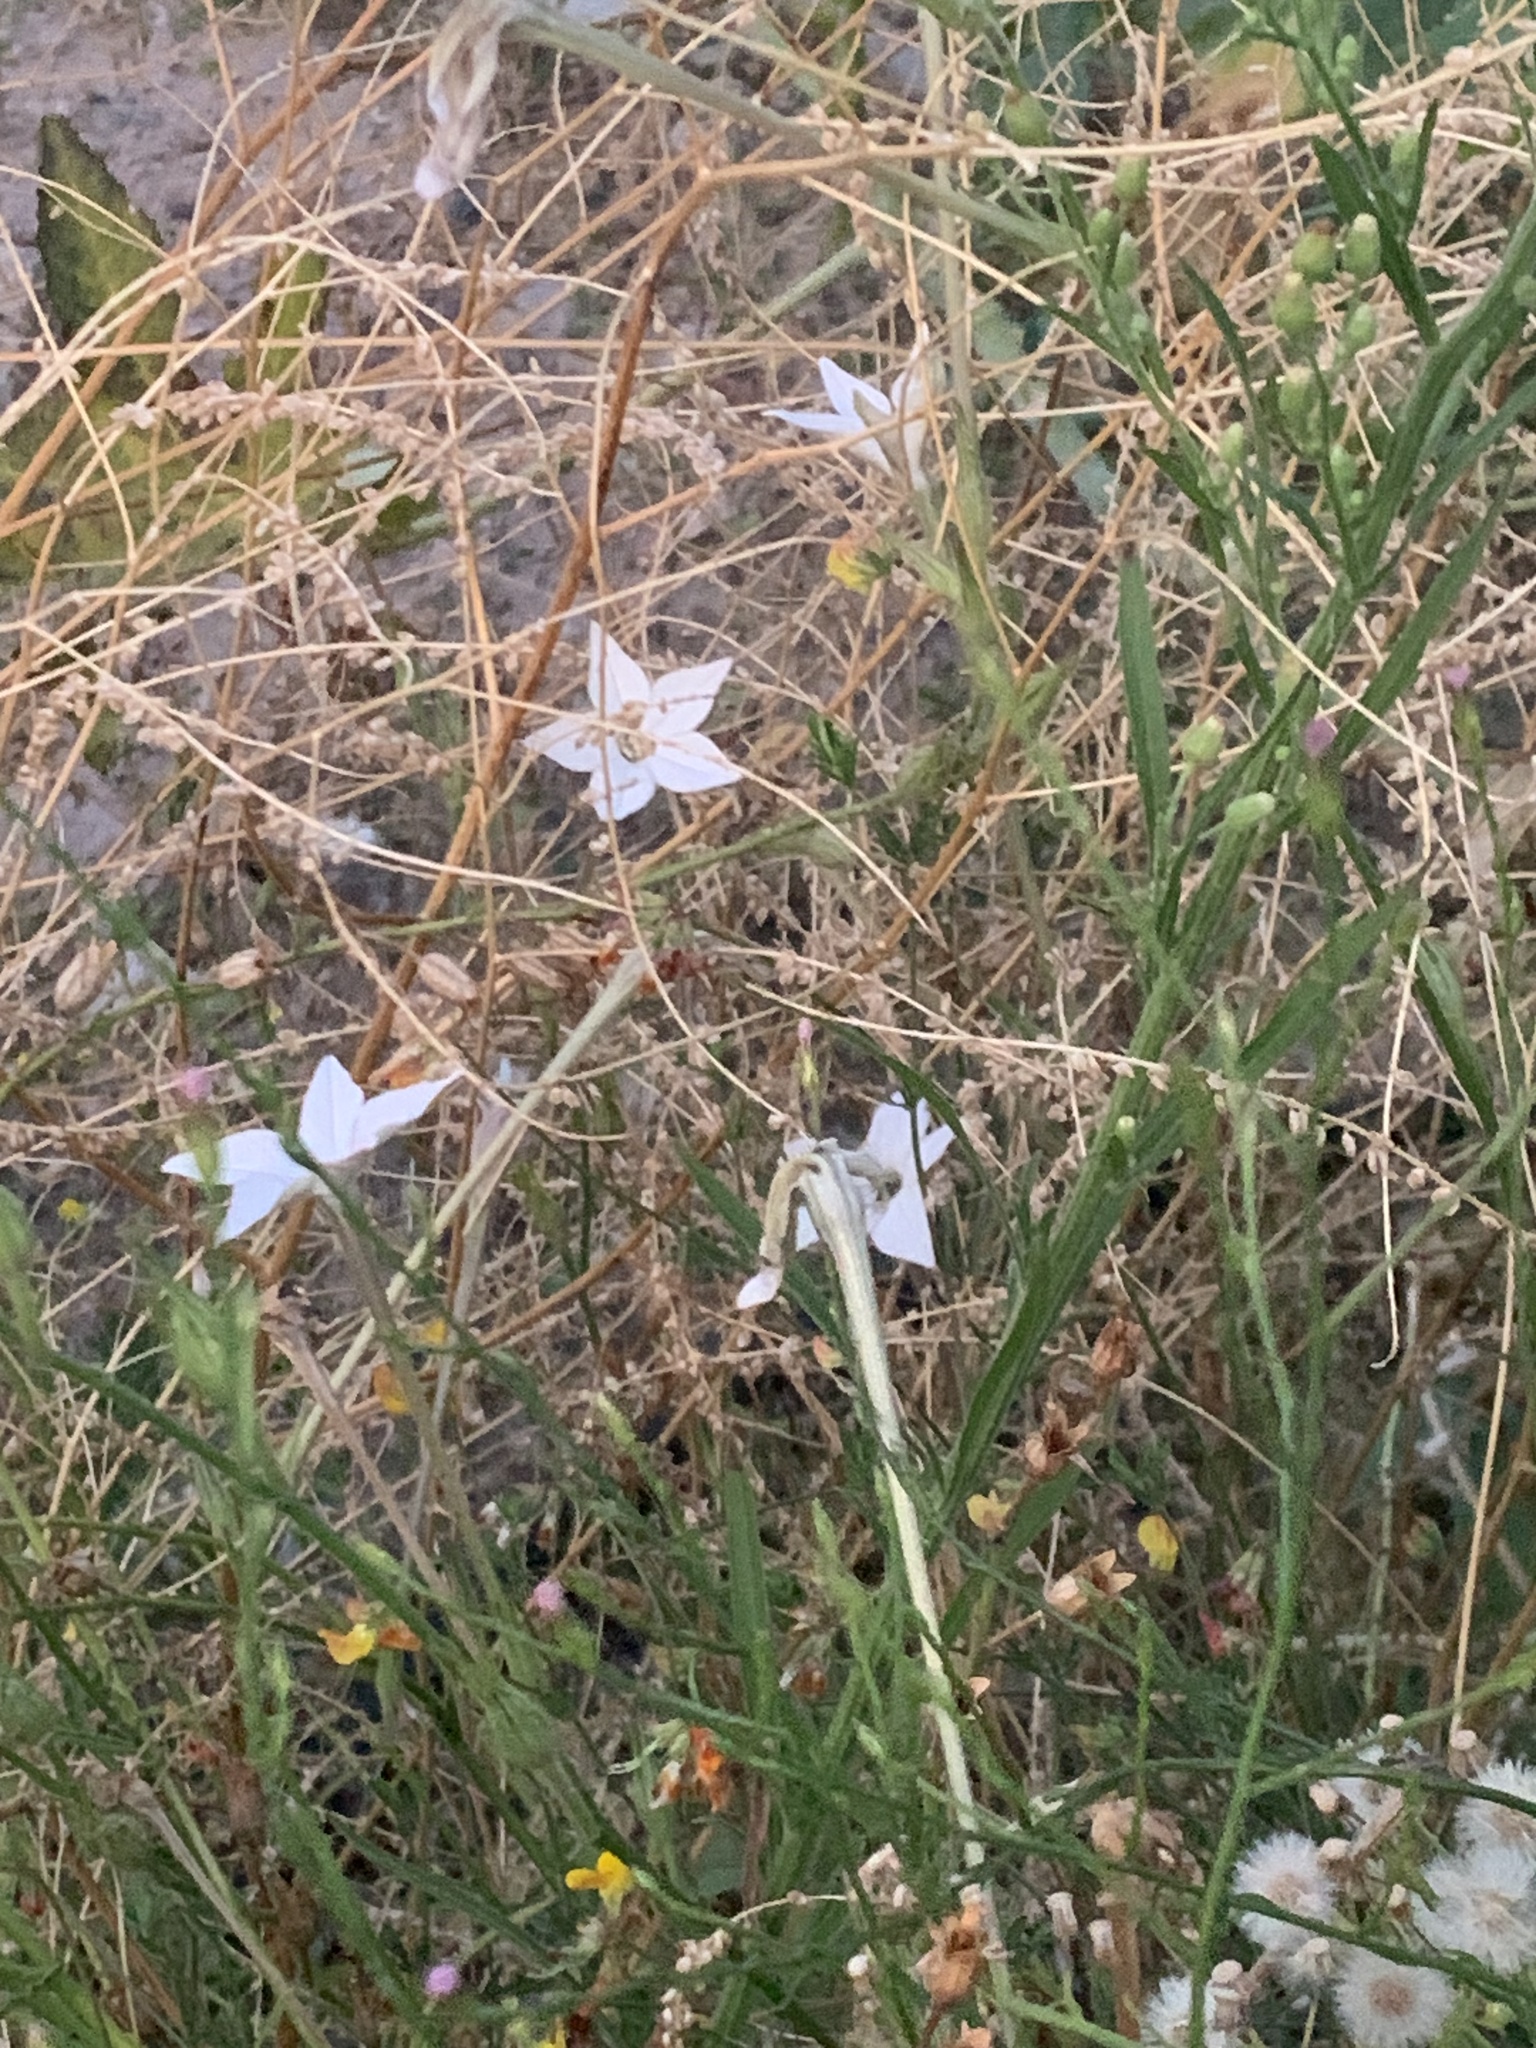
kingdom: Plantae
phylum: Tracheophyta
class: Magnoliopsida
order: Solanales
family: Solanaceae
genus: Nicotiana
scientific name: Nicotiana longiflora
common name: Long-flowered tobacco
